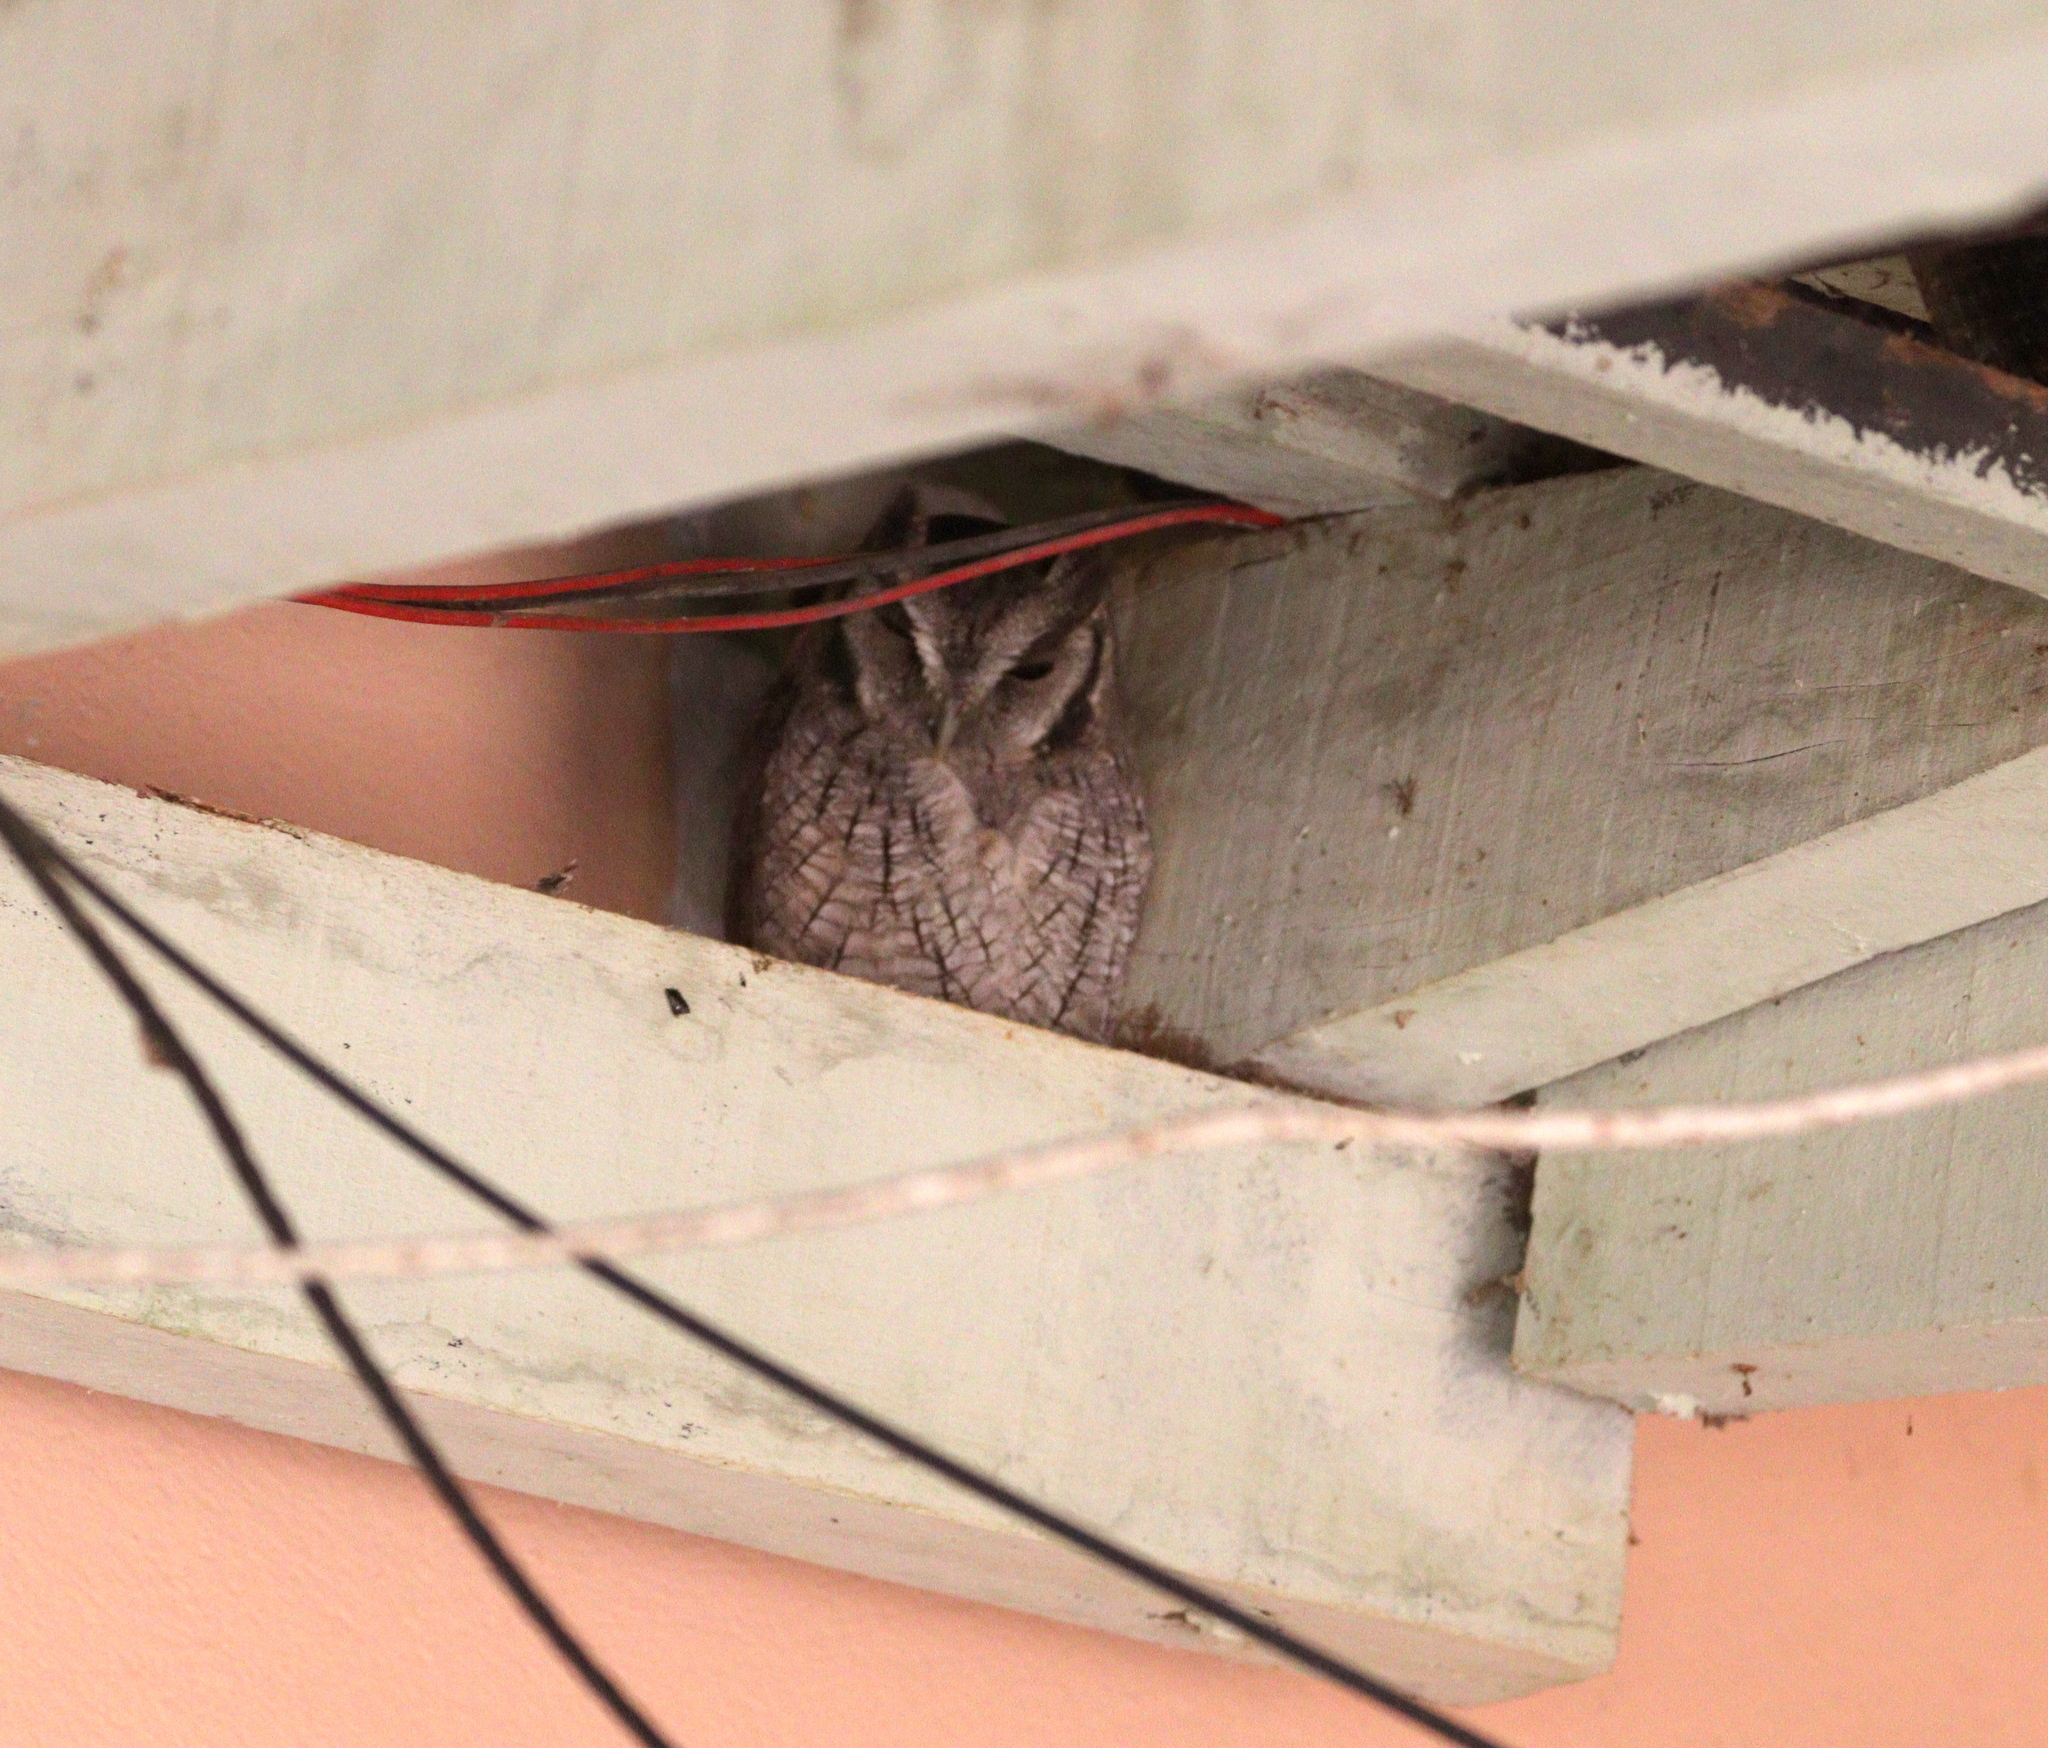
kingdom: Animalia
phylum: Chordata
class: Aves
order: Strigiformes
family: Strigidae
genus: Megascops
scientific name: Megascops choliba
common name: Tropical screech-owl
